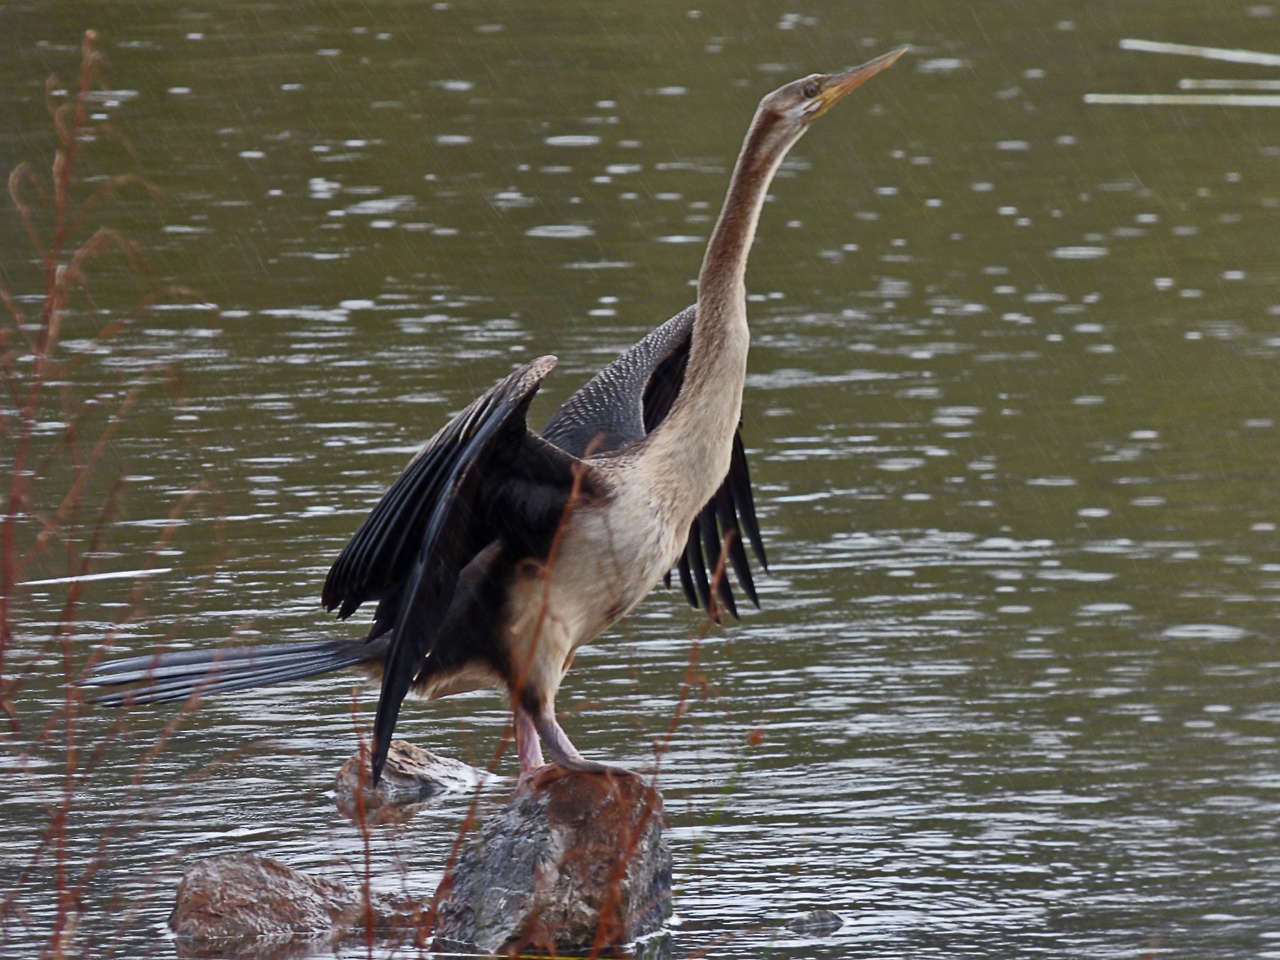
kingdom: Animalia
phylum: Chordata
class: Aves
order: Suliformes
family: Anhingidae
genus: Anhinga
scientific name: Anhinga novaehollandiae
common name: Australasian darter
